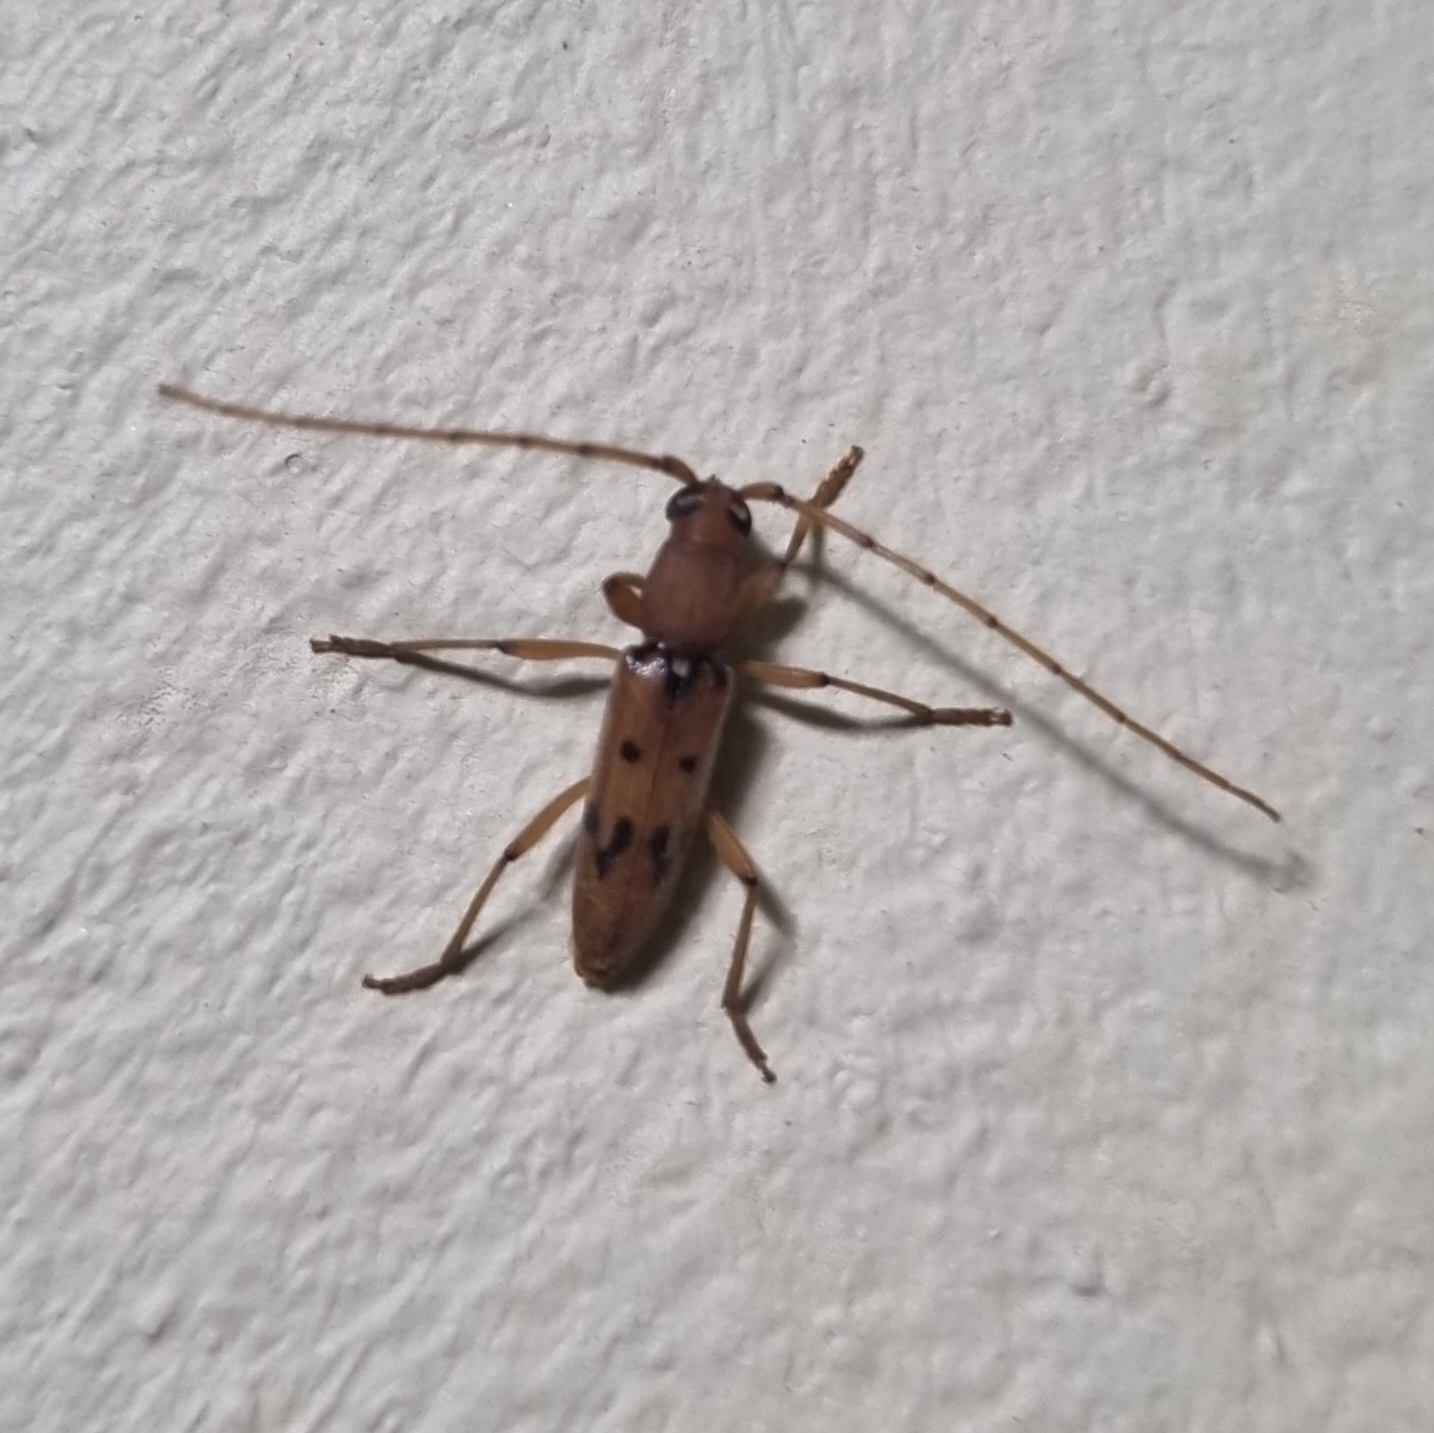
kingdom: Animalia
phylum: Arthropoda
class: Insecta
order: Coleoptera
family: Cerambycidae
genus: Achryson
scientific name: Achryson surinamum
